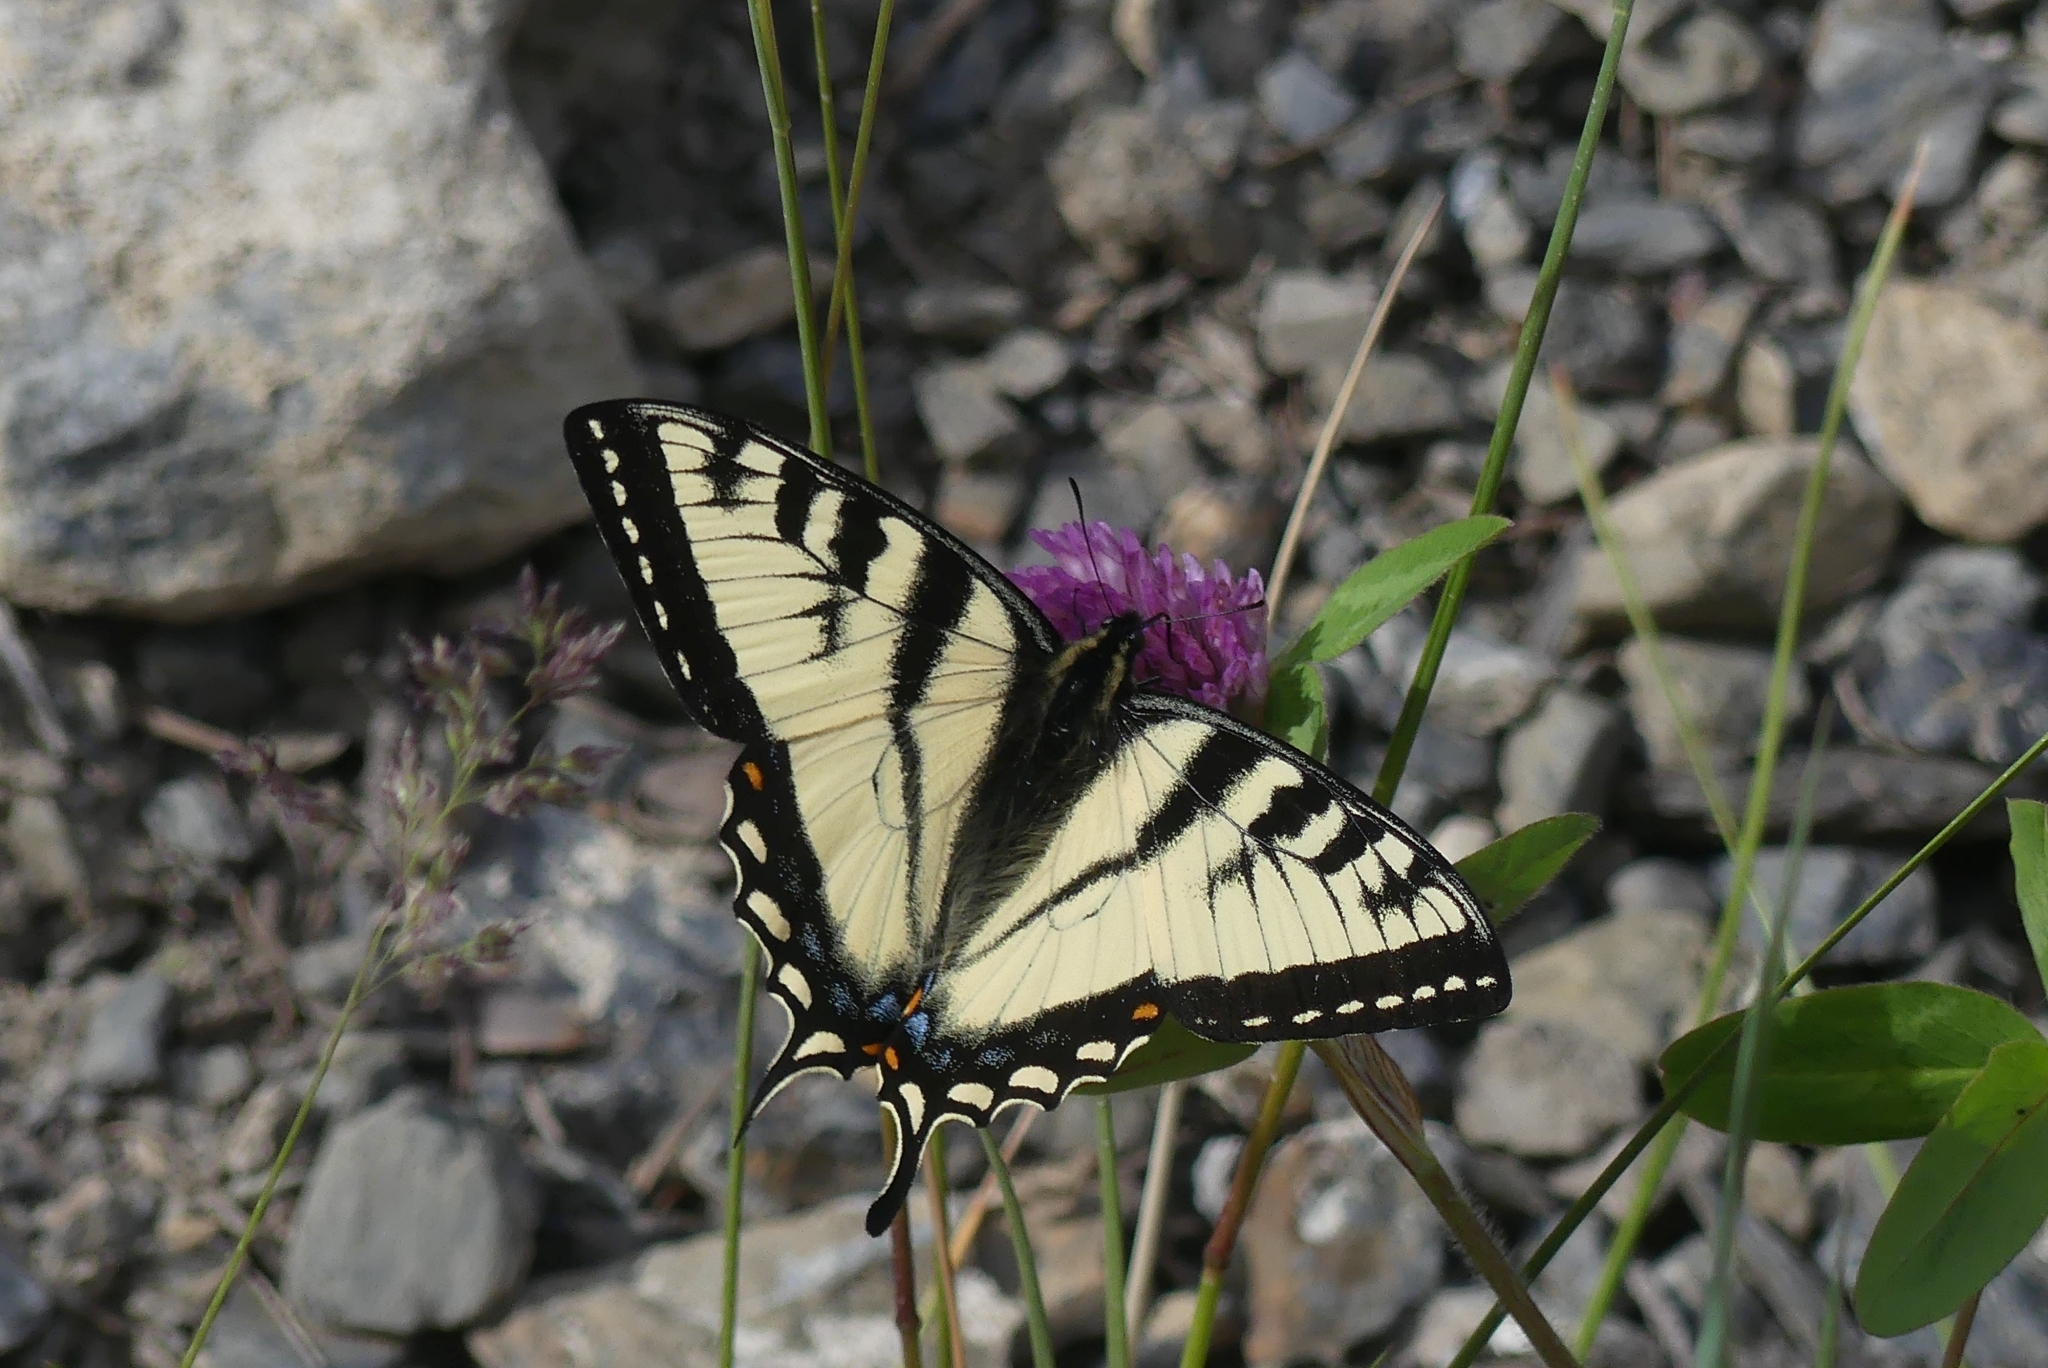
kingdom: Animalia
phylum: Arthropoda
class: Insecta
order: Lepidoptera
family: Papilionidae
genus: Papilio
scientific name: Papilio canadensis
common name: Canadian tiger swallowtail
